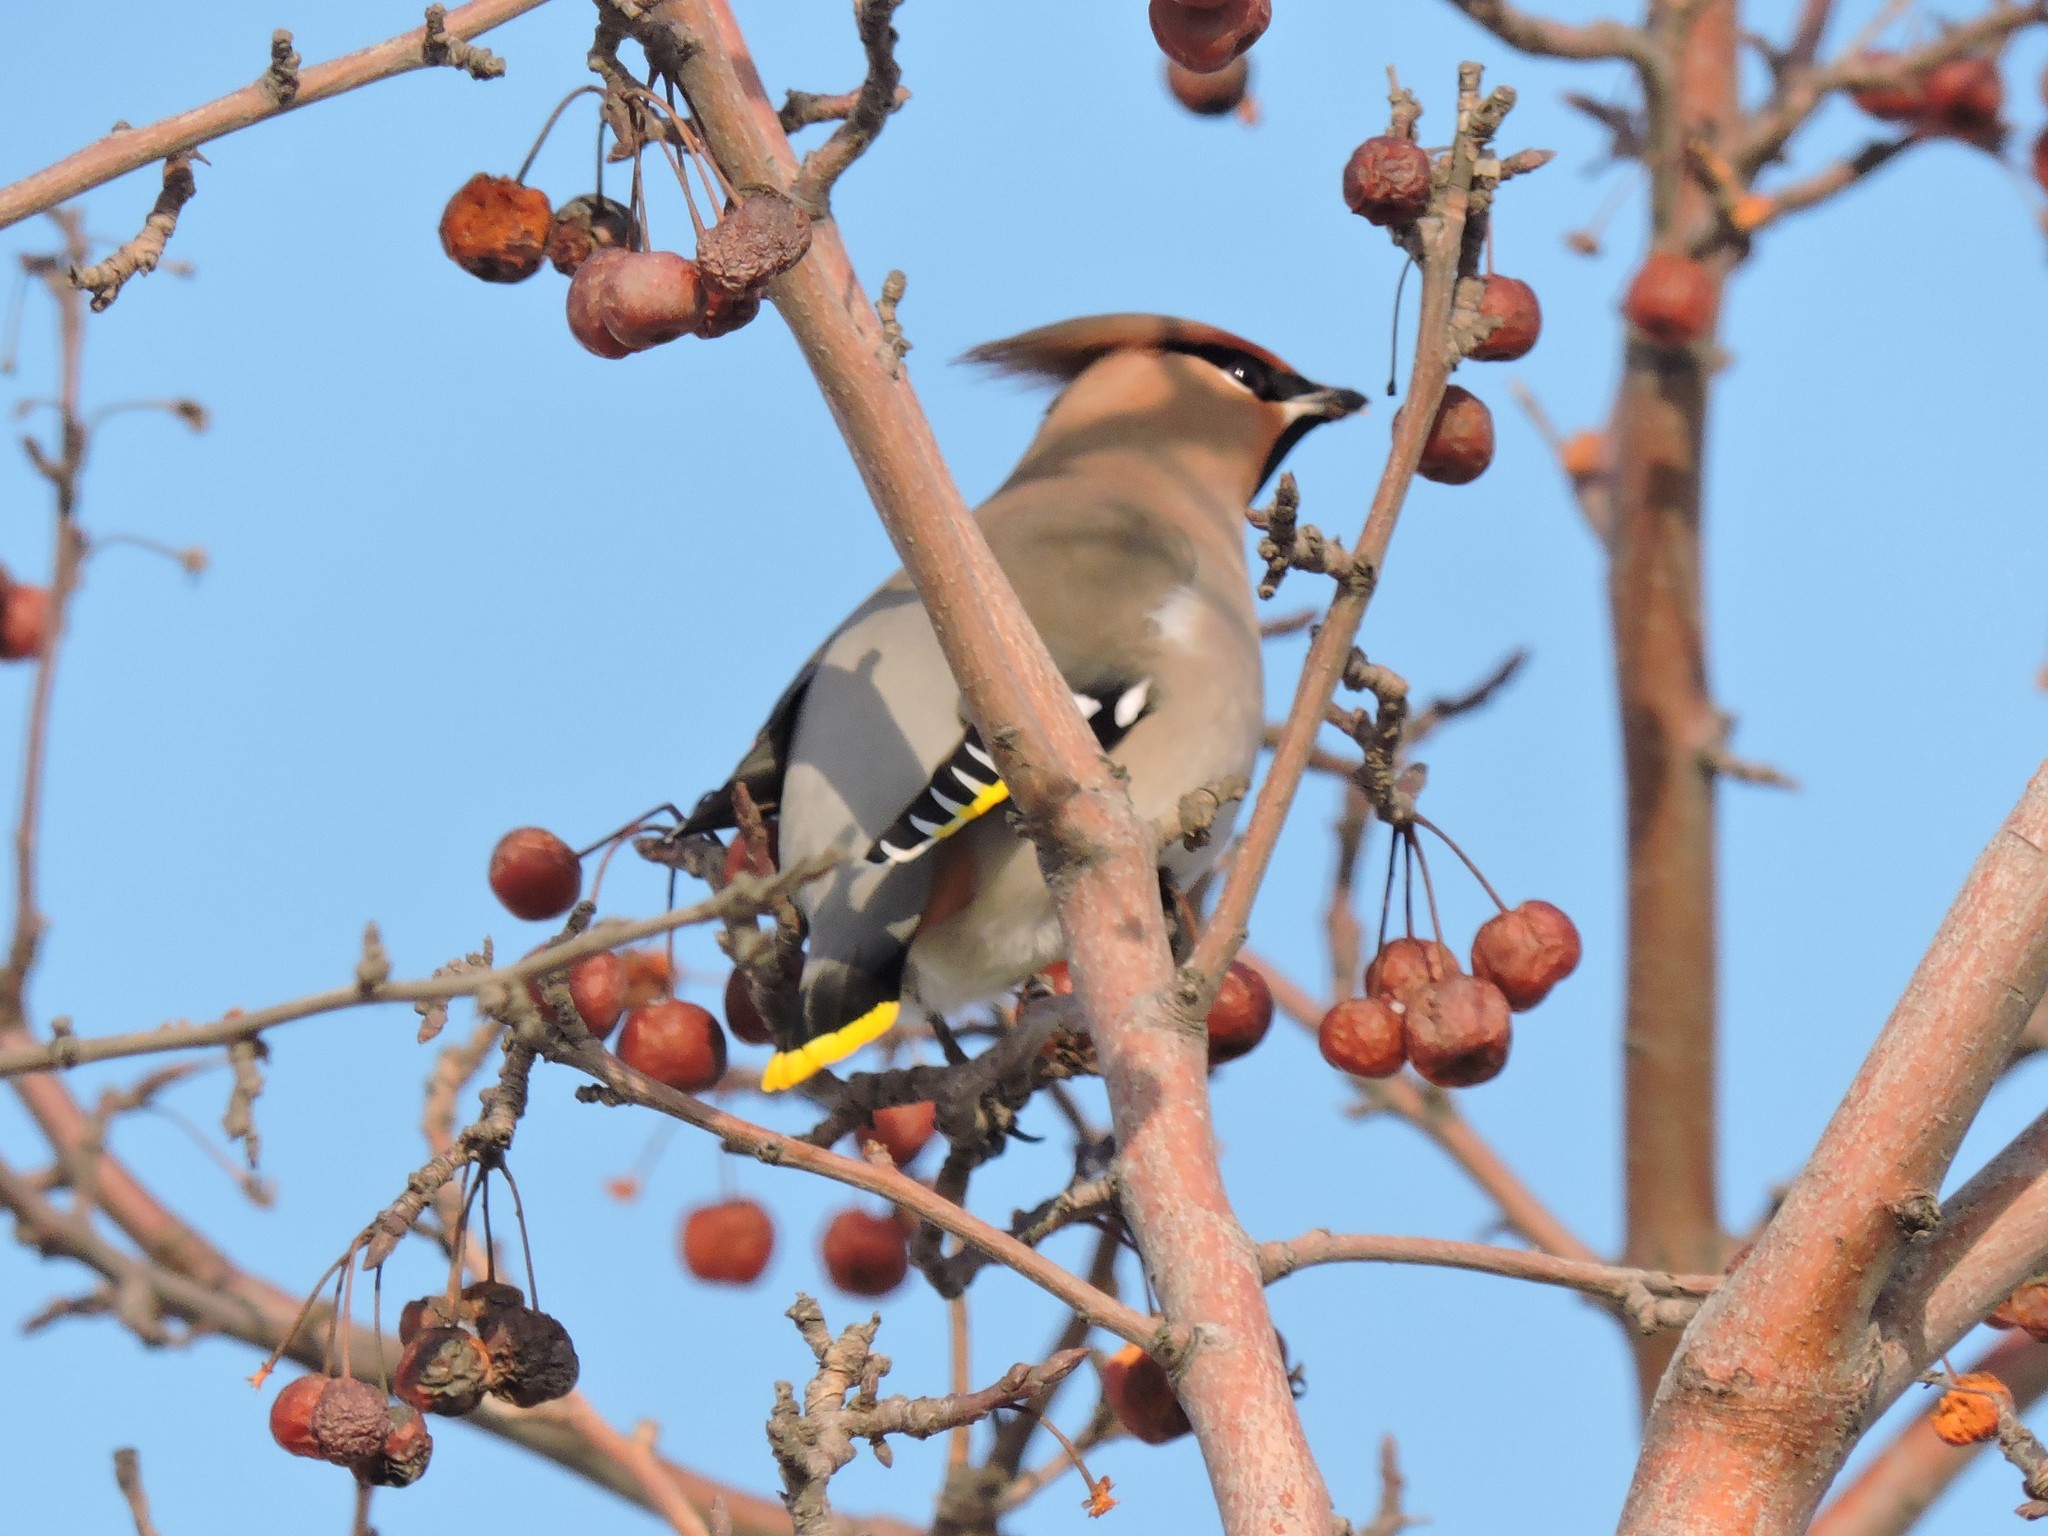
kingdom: Animalia
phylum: Chordata
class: Aves
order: Passeriformes
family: Bombycillidae
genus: Bombycilla
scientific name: Bombycilla garrulus
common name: Bohemian waxwing
